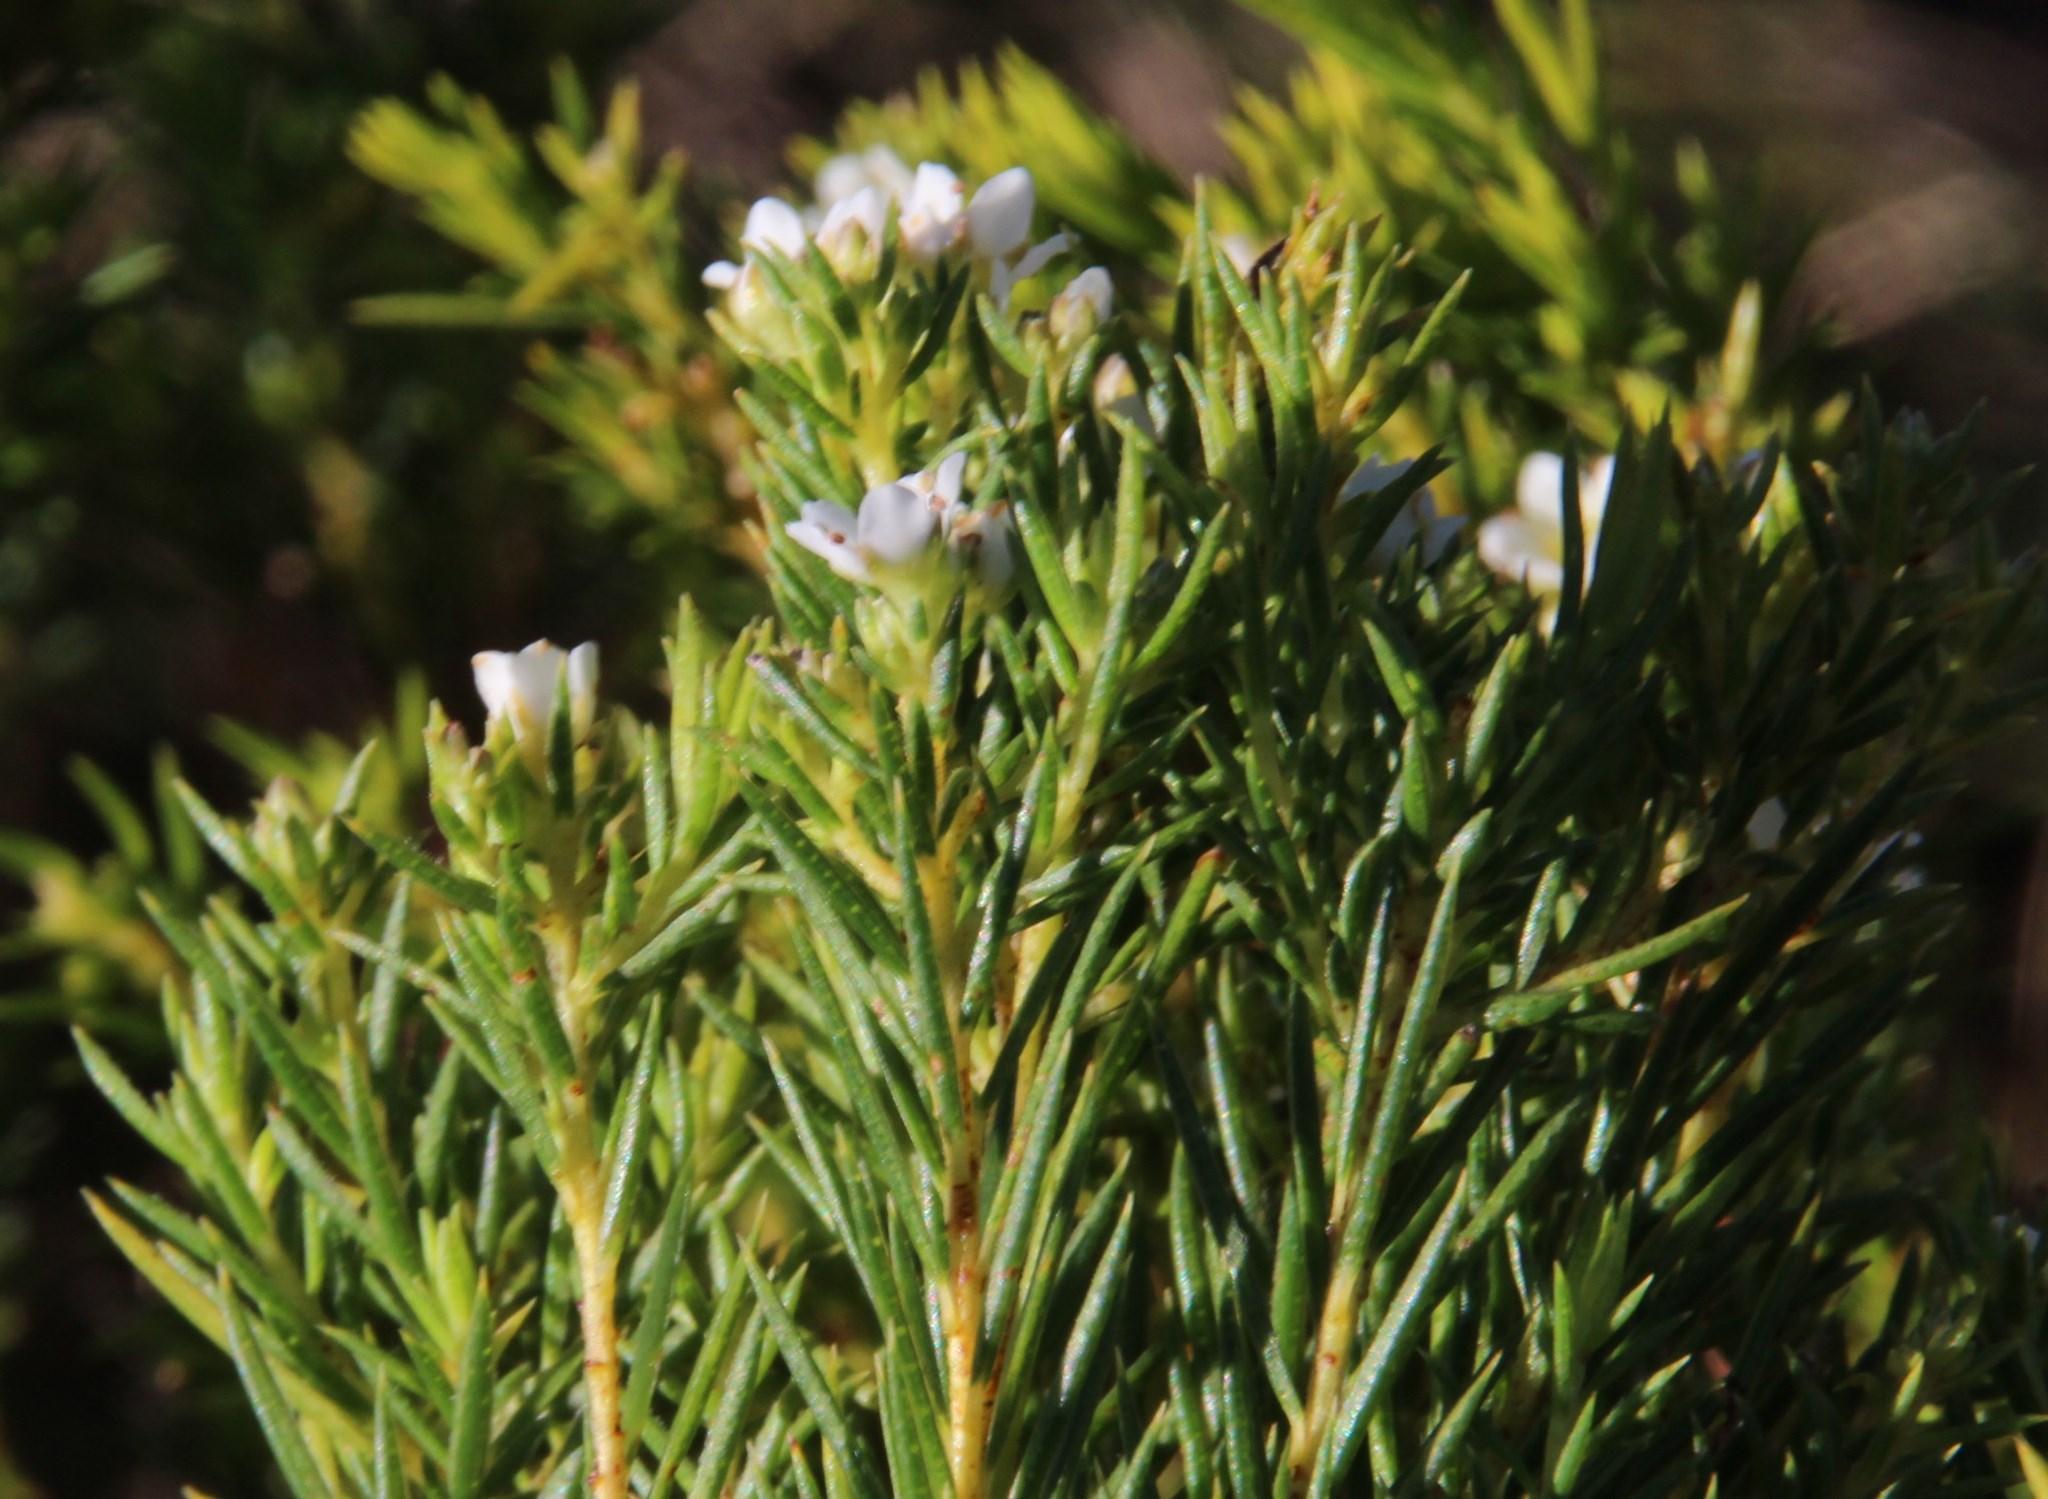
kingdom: Plantae
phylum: Tracheophyta
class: Magnoliopsida
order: Sapindales
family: Rutaceae
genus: Diosma
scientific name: Diosma hirsuta
